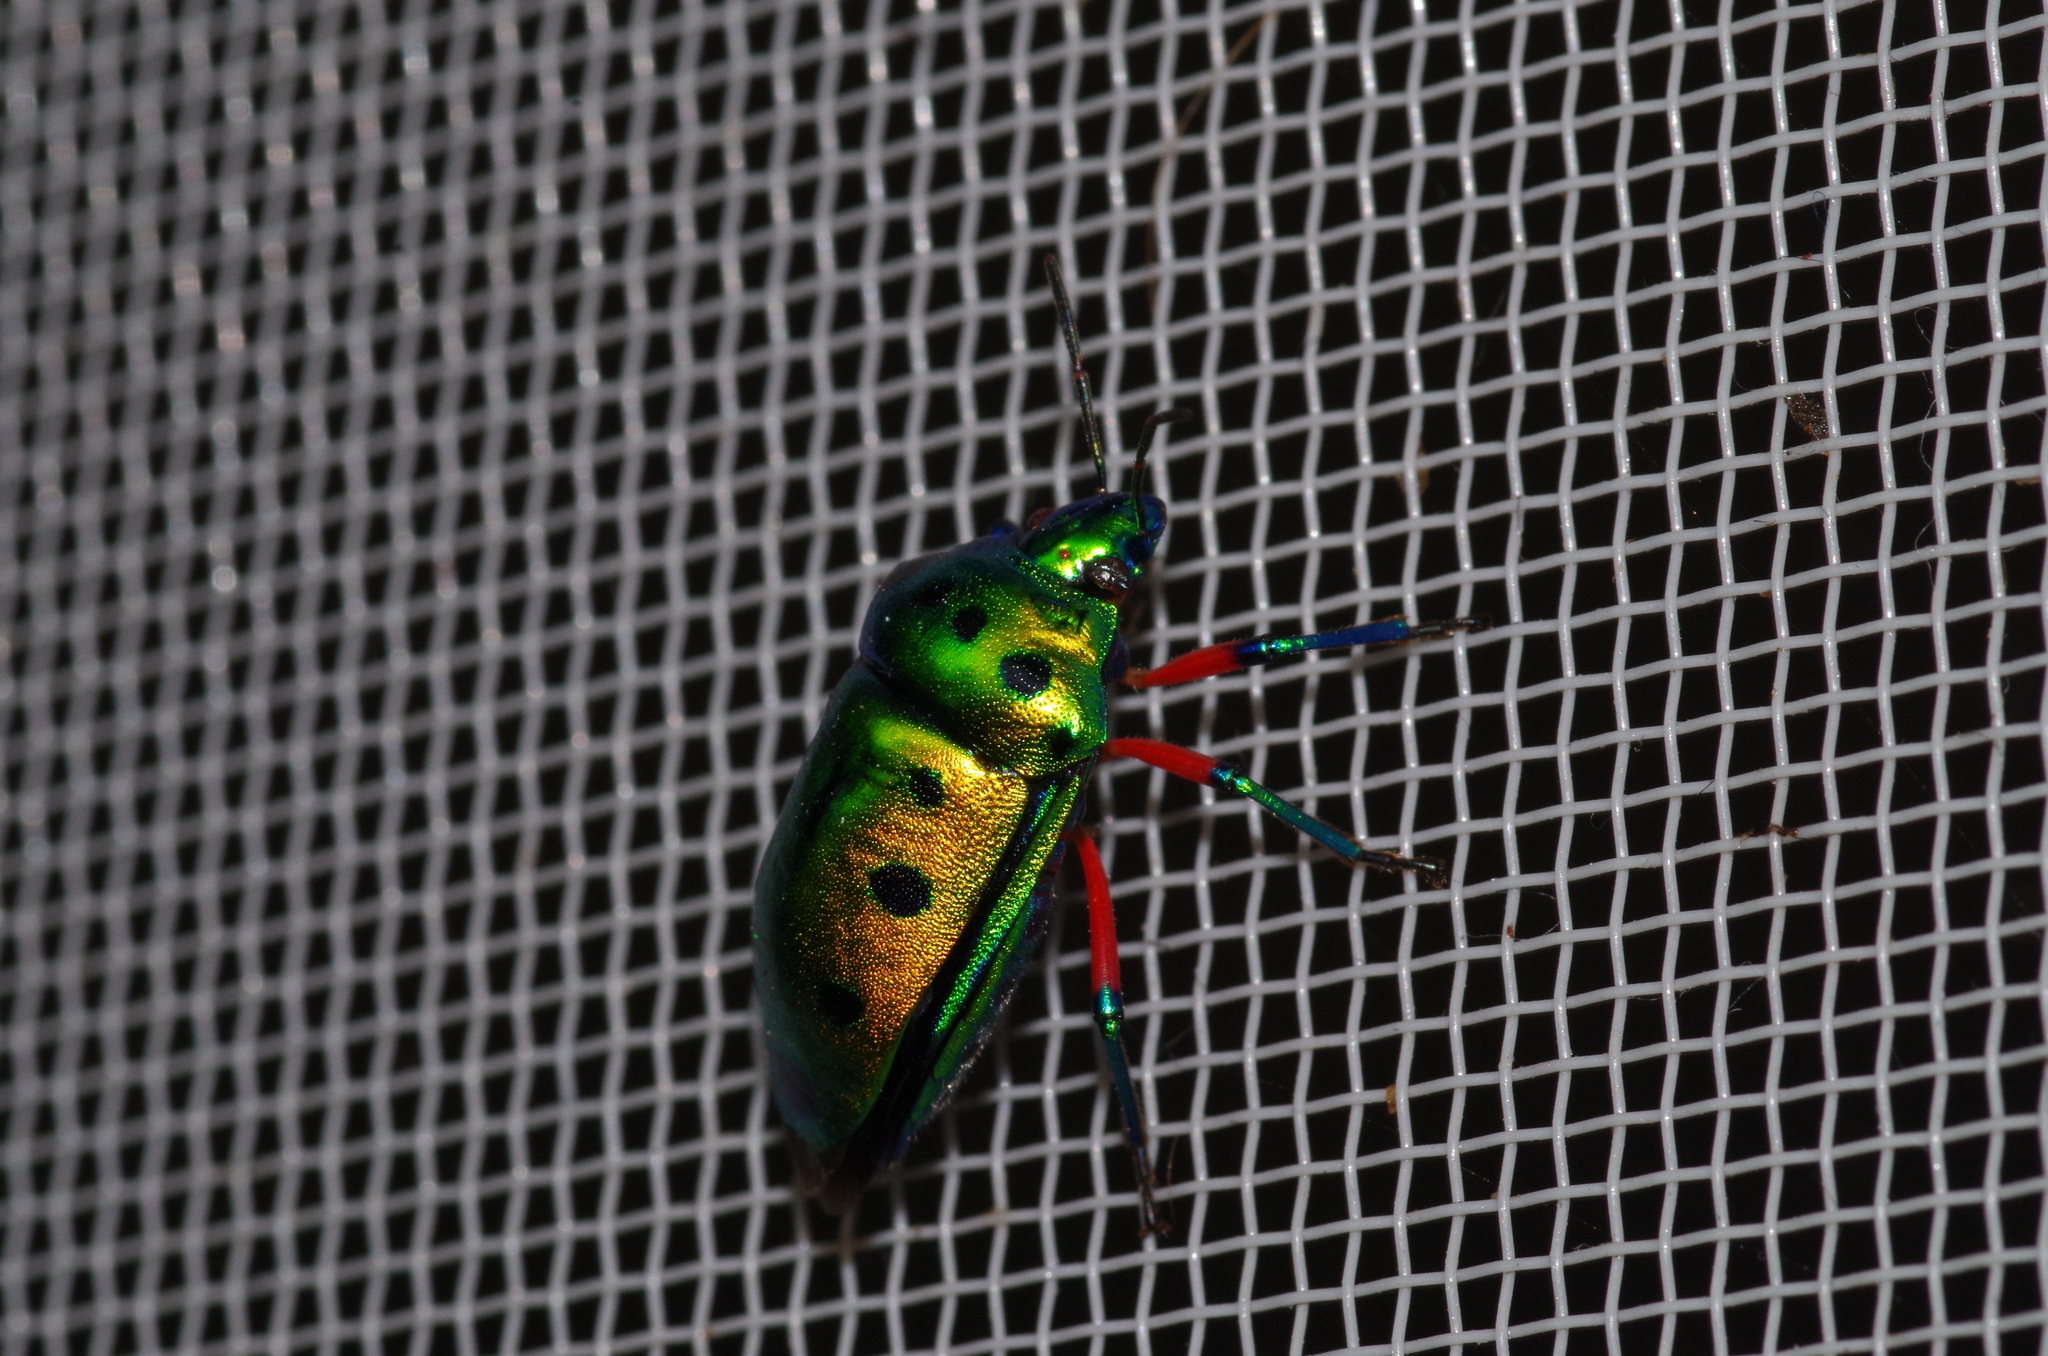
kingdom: Animalia
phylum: Arthropoda
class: Insecta
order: Hemiptera
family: Scutelleridae
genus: Calliphara
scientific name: Calliphara excellens
